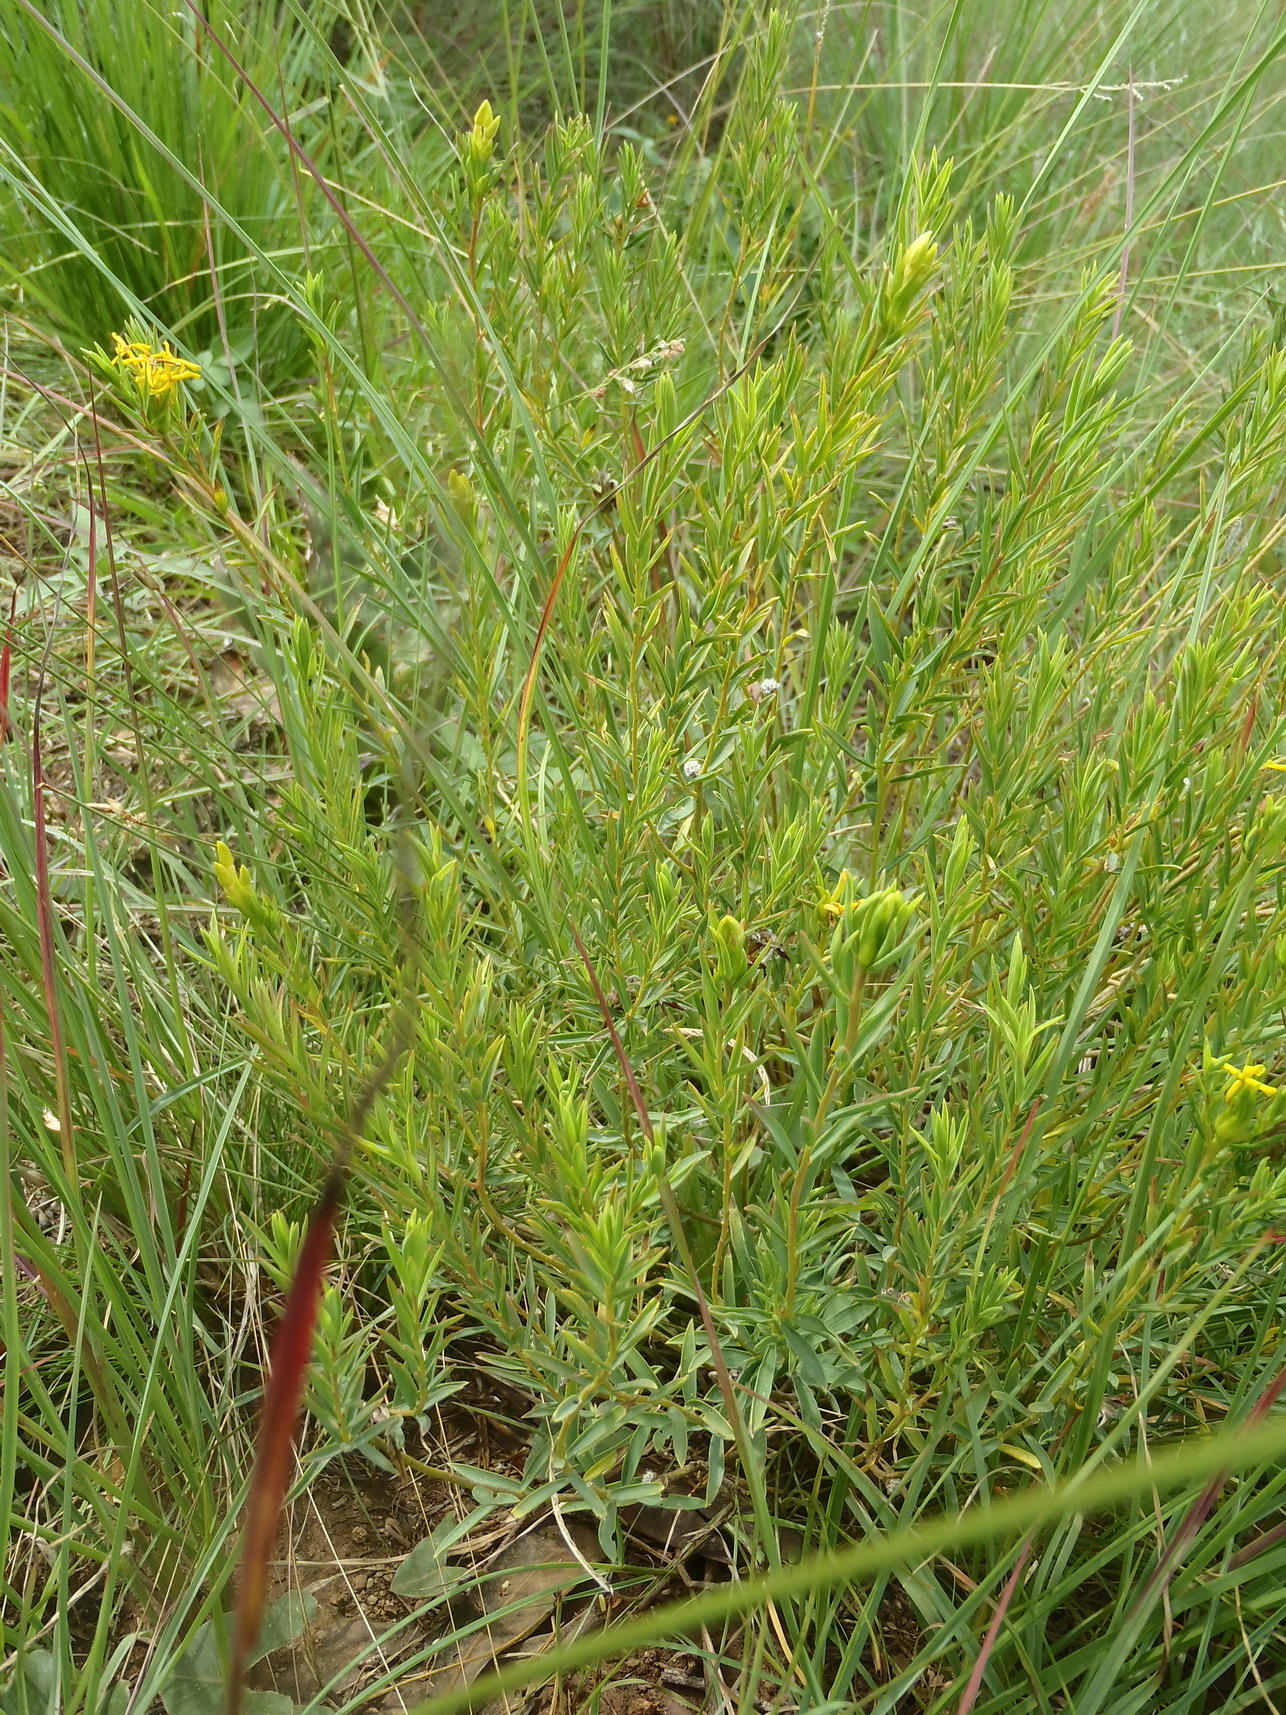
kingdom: Plantae
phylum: Tracheophyta
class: Magnoliopsida
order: Malvales
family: Thymelaeaceae
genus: Gnidia
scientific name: Gnidia caffra
